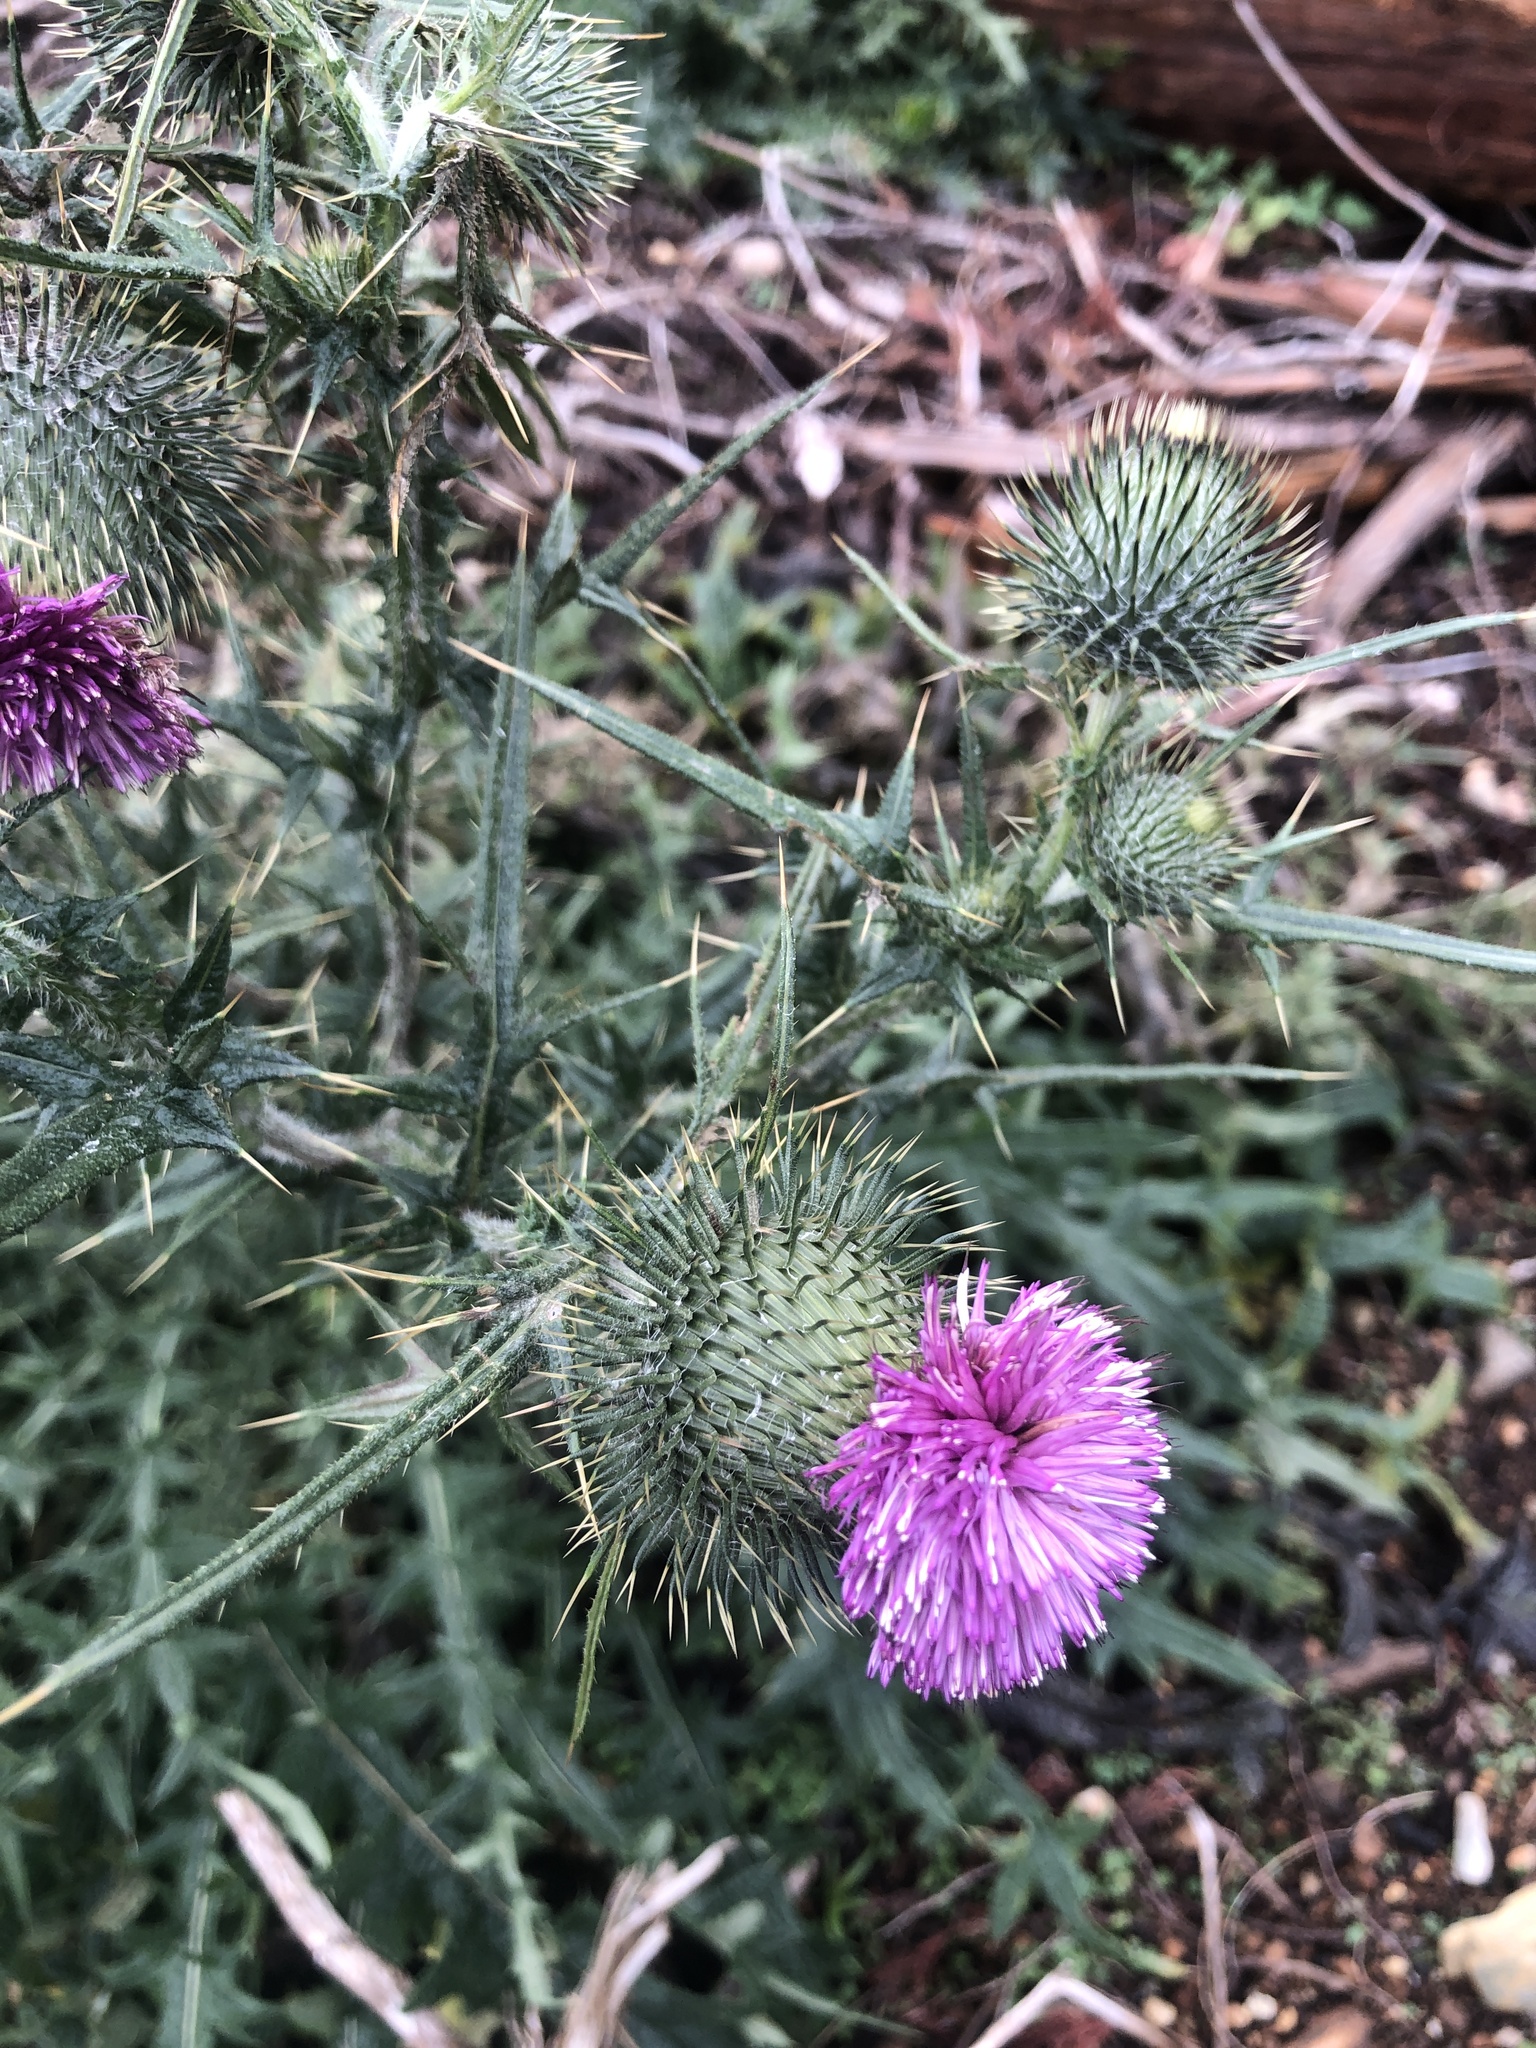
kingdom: Plantae
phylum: Tracheophyta
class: Magnoliopsida
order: Asterales
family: Asteraceae
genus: Cirsium
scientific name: Cirsium vulgare
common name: Bull thistle
